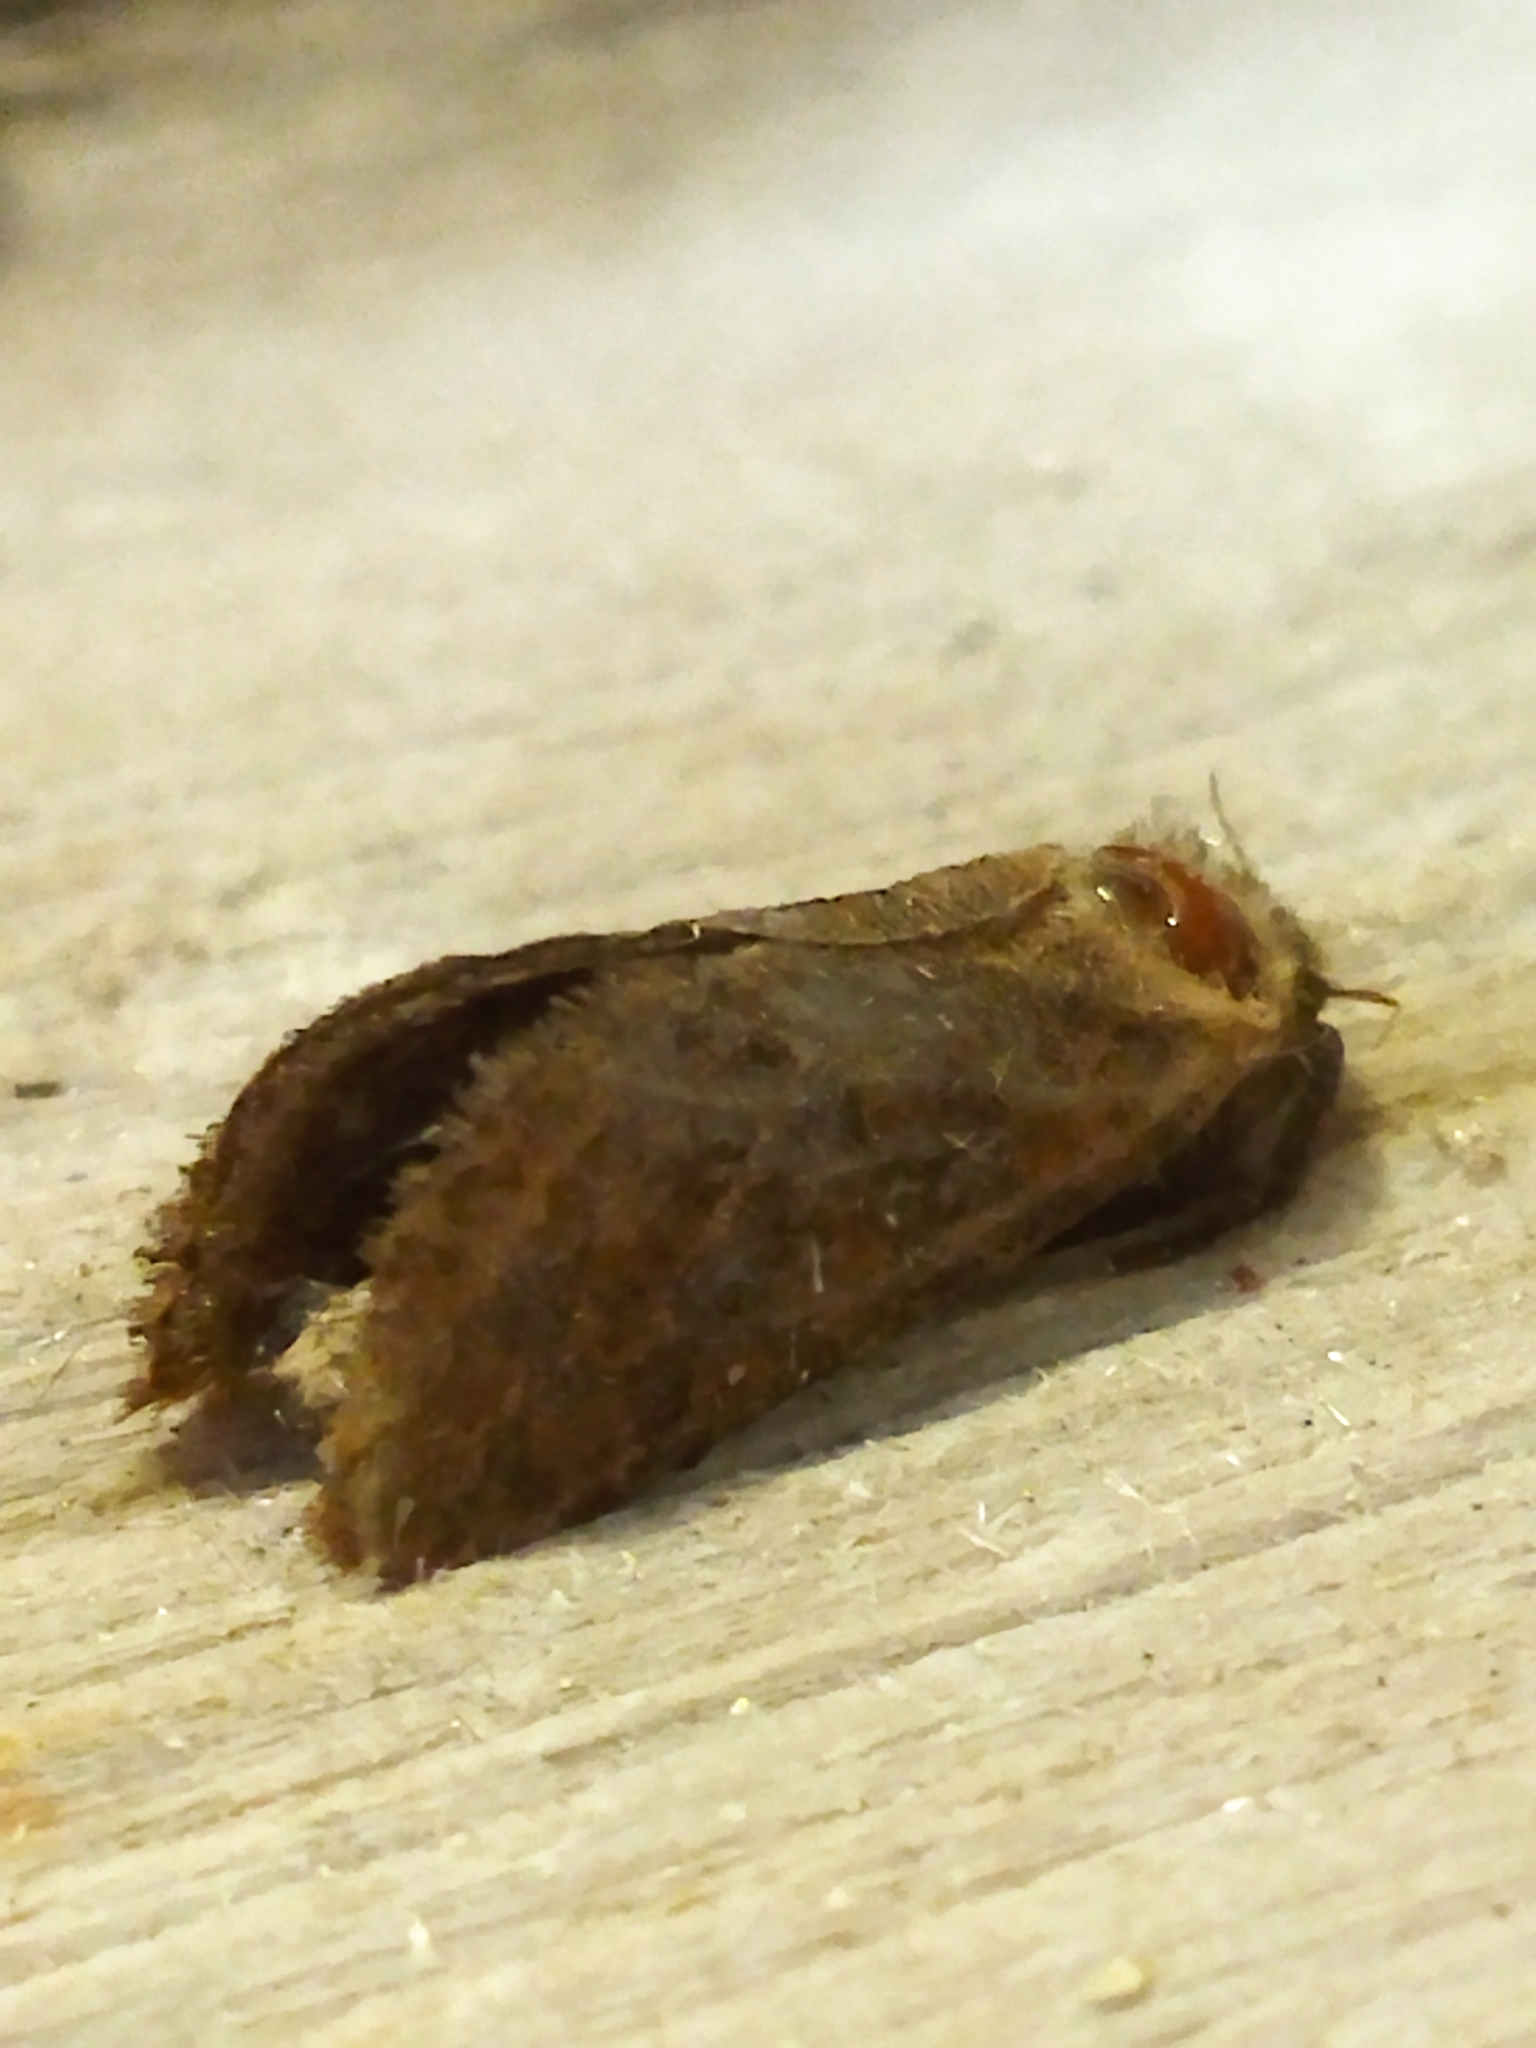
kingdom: Animalia
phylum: Arthropoda
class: Insecta
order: Lepidoptera
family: Hepialidae
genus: Triodia
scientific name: Triodia amasinus
